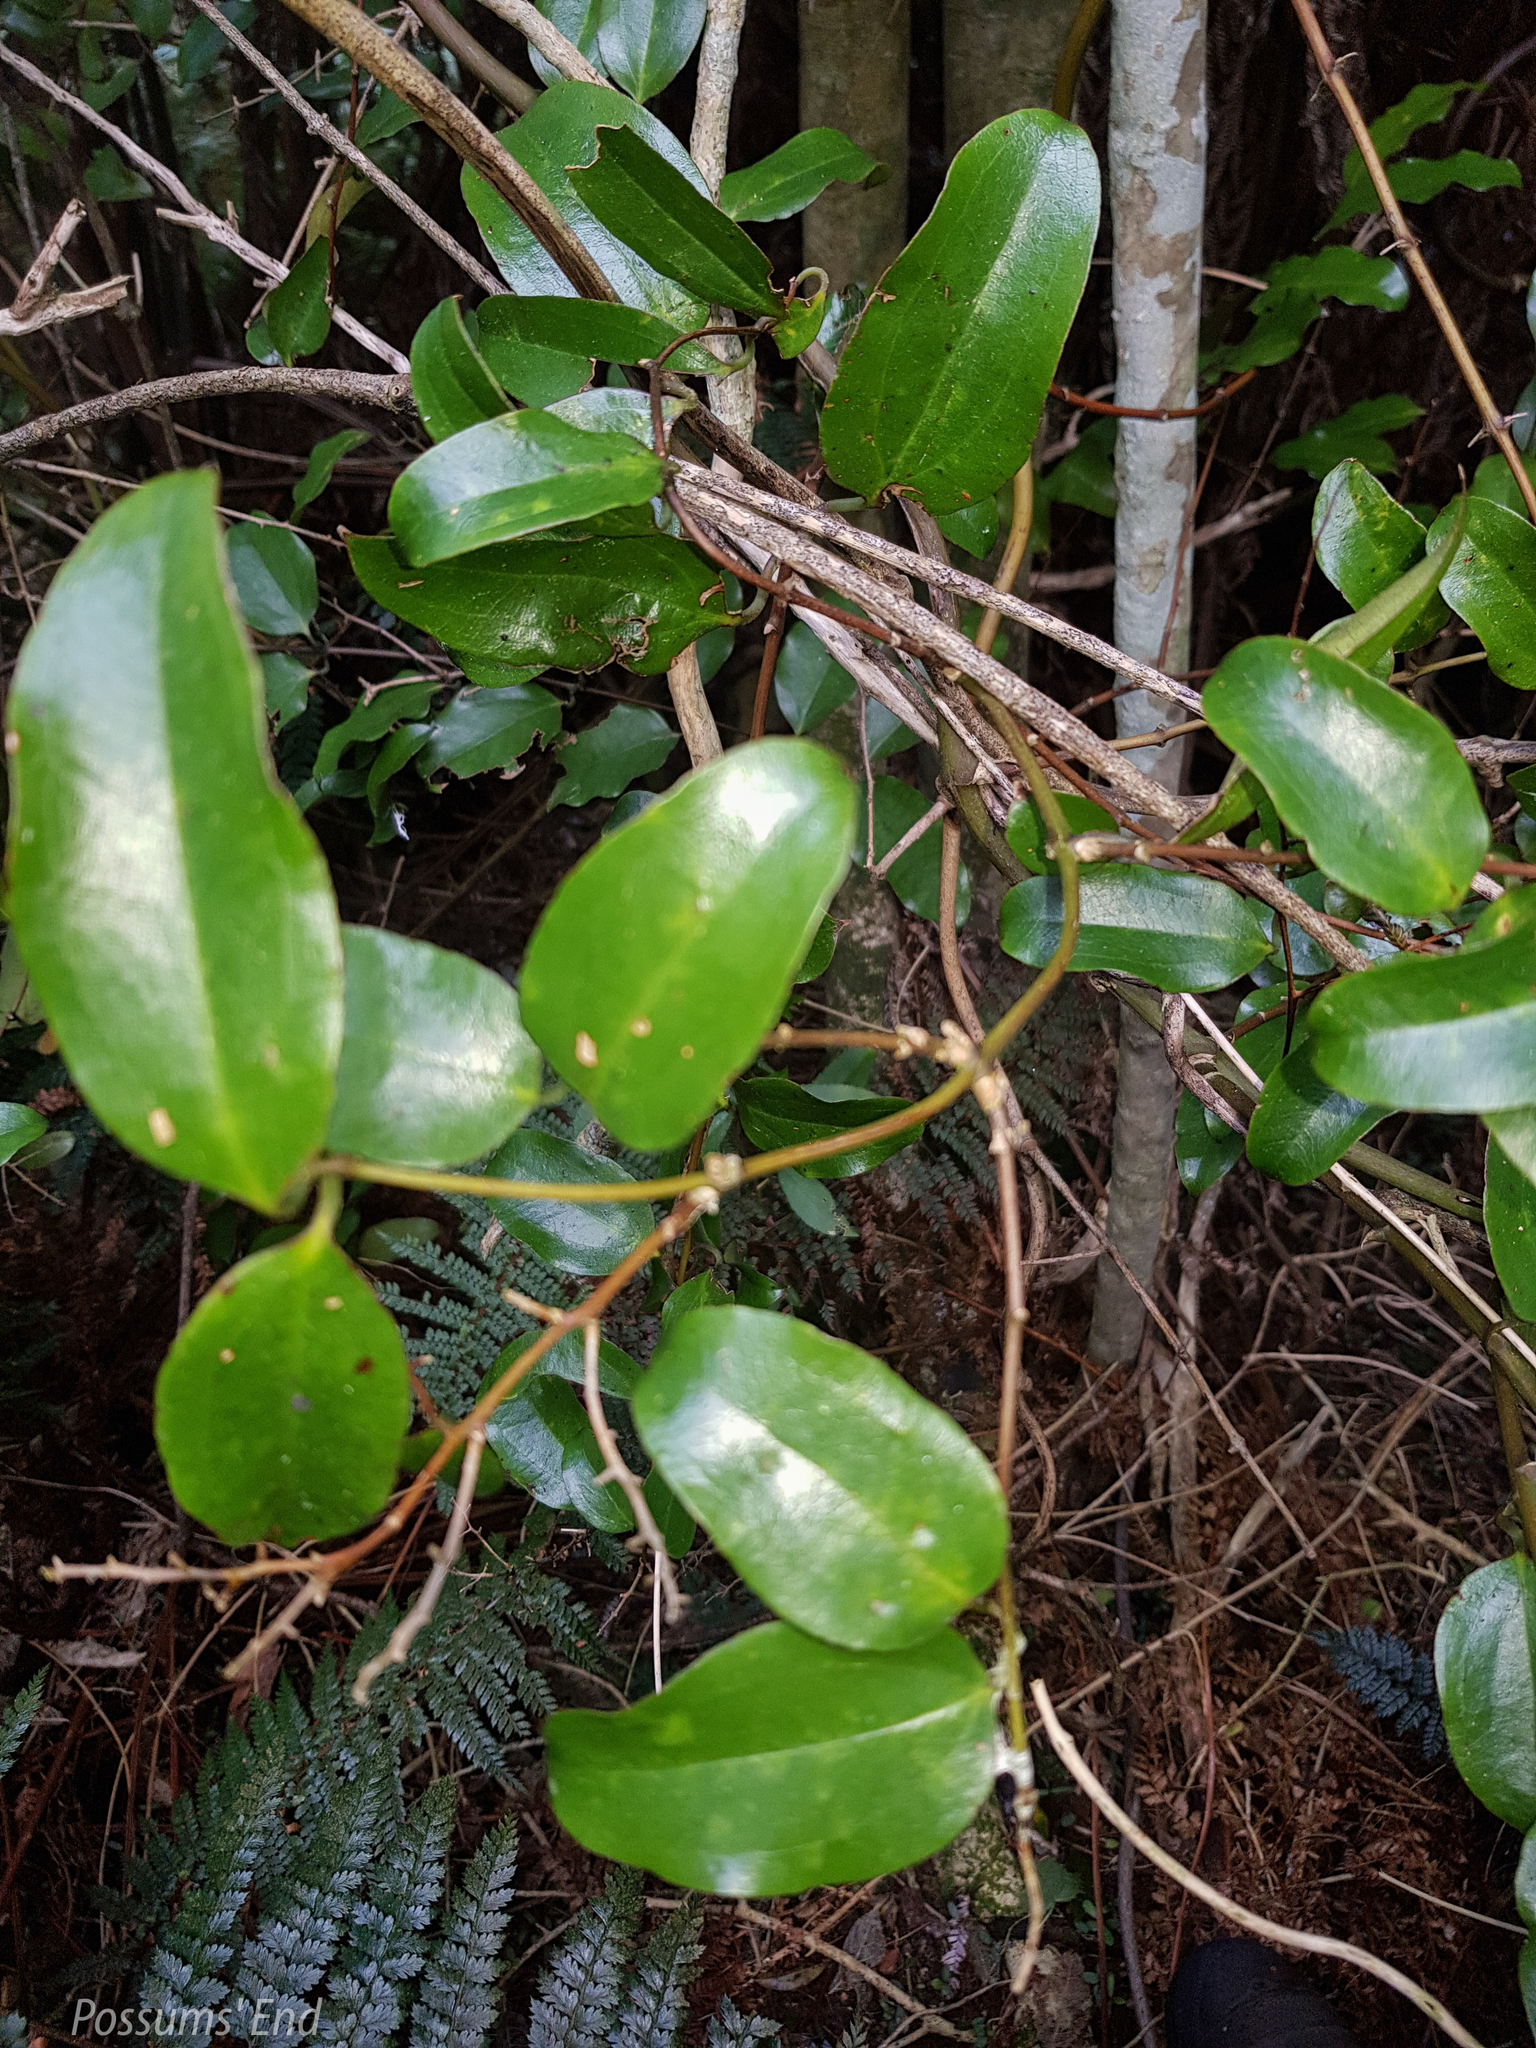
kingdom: Plantae
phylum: Tracheophyta
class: Liliopsida
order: Liliales
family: Ripogonaceae
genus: Ripogonum
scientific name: Ripogonum scandens
